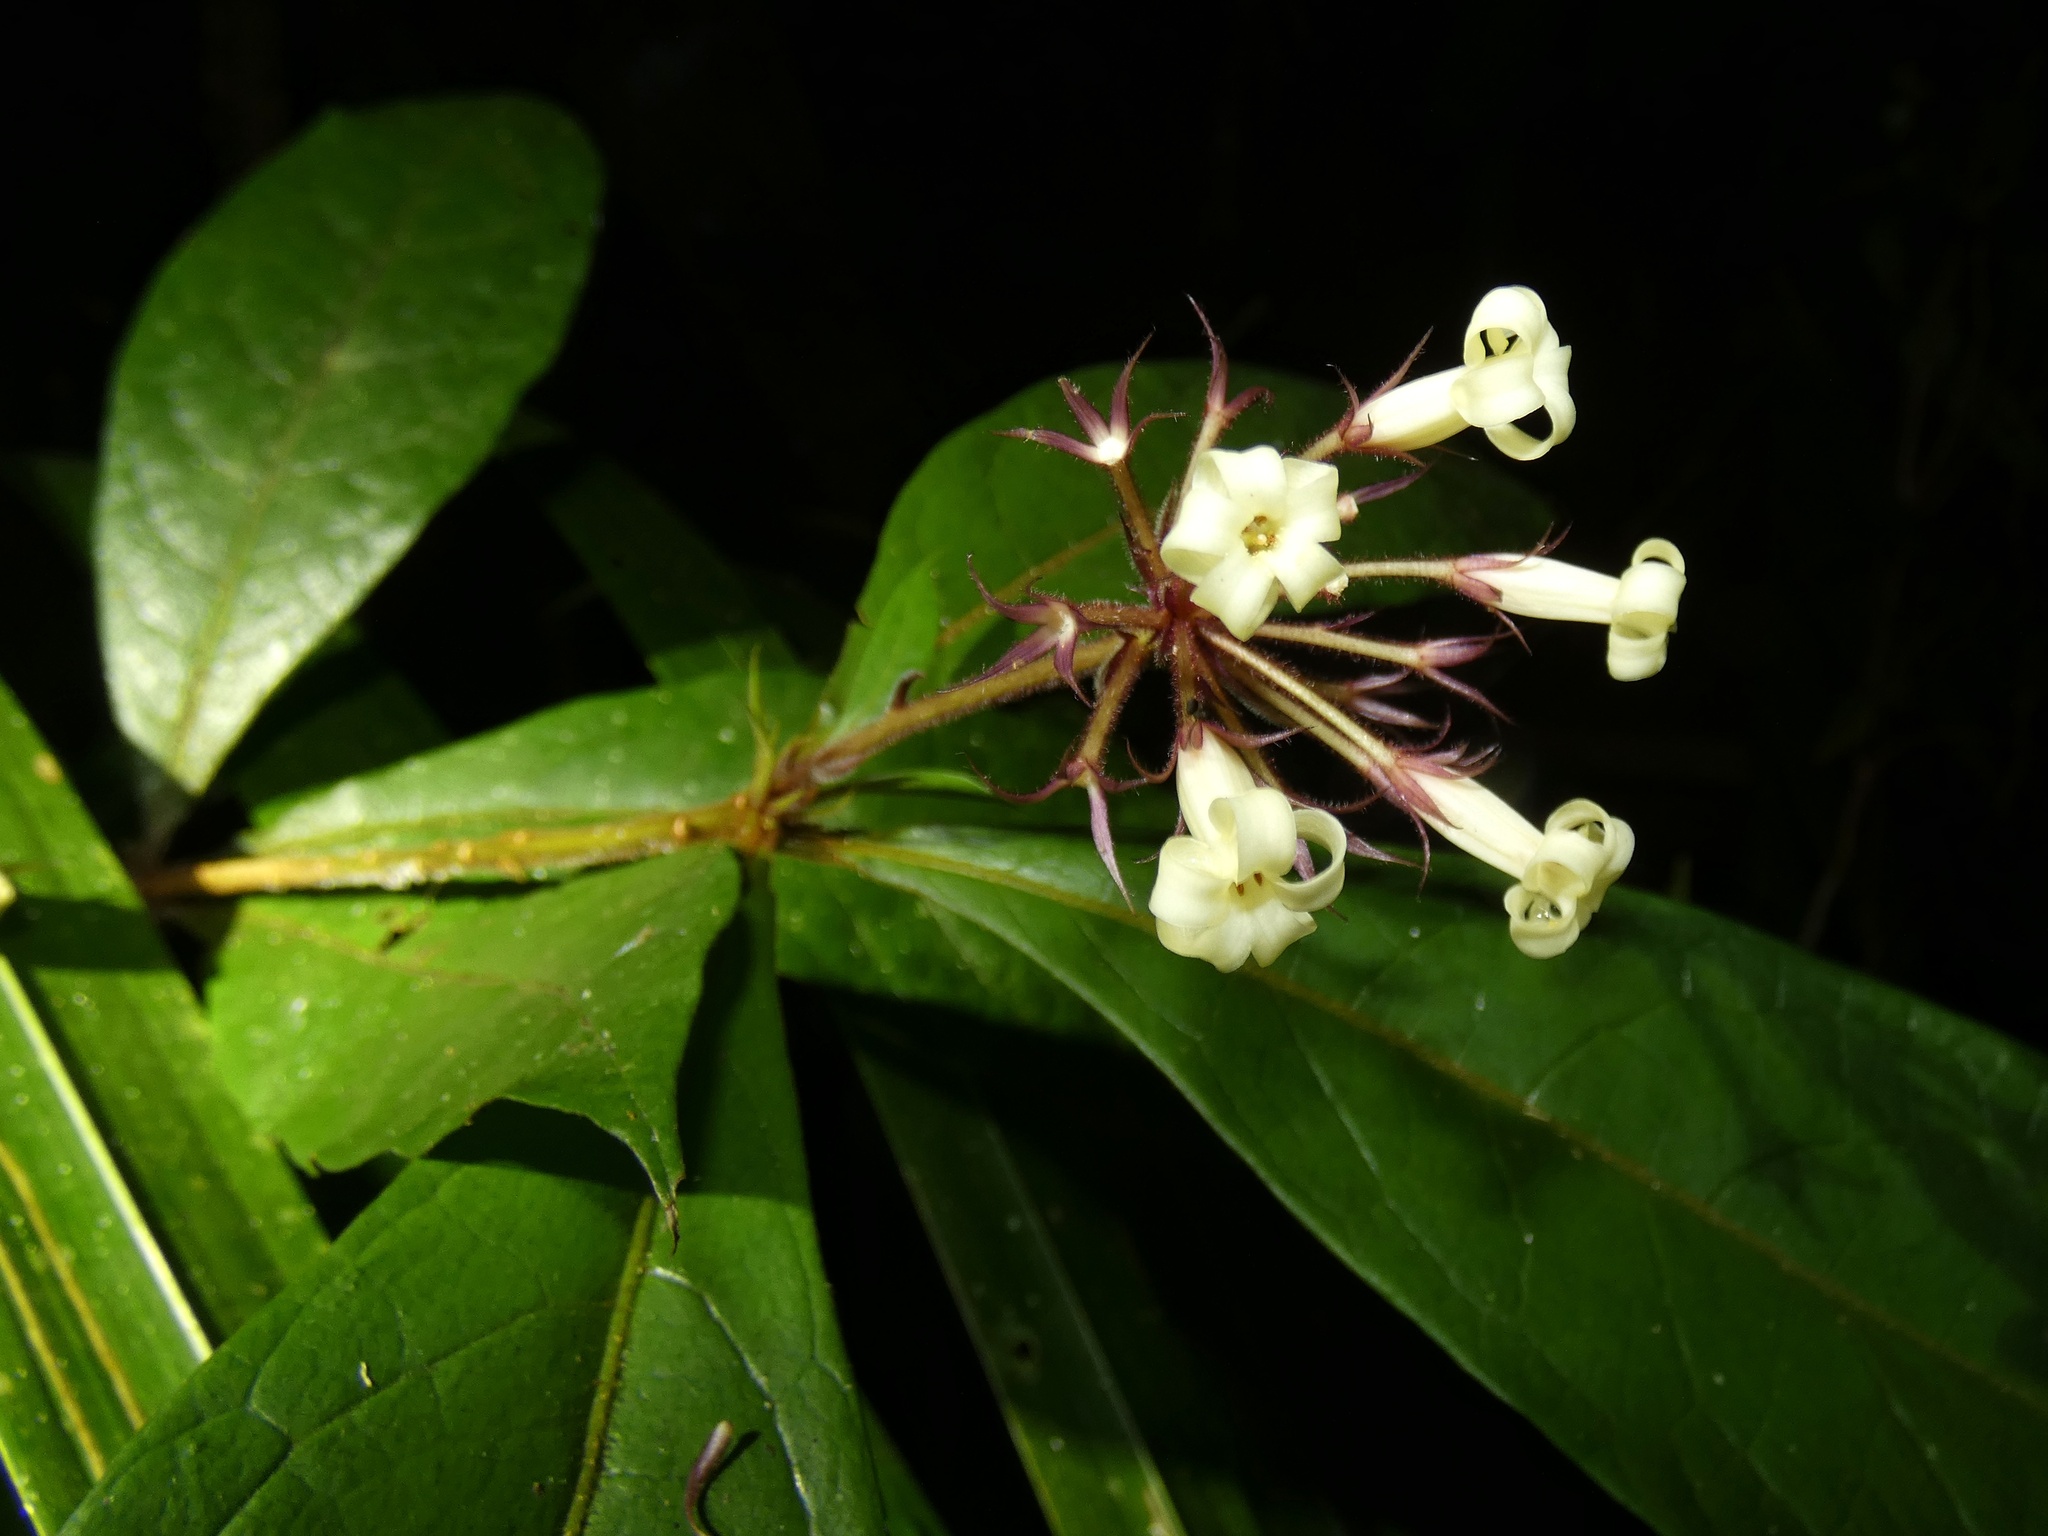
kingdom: Plantae
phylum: Tracheophyta
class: Magnoliopsida
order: Apiales
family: Pittosporaceae
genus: Pittosporum
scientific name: Pittosporum rubiginosum
